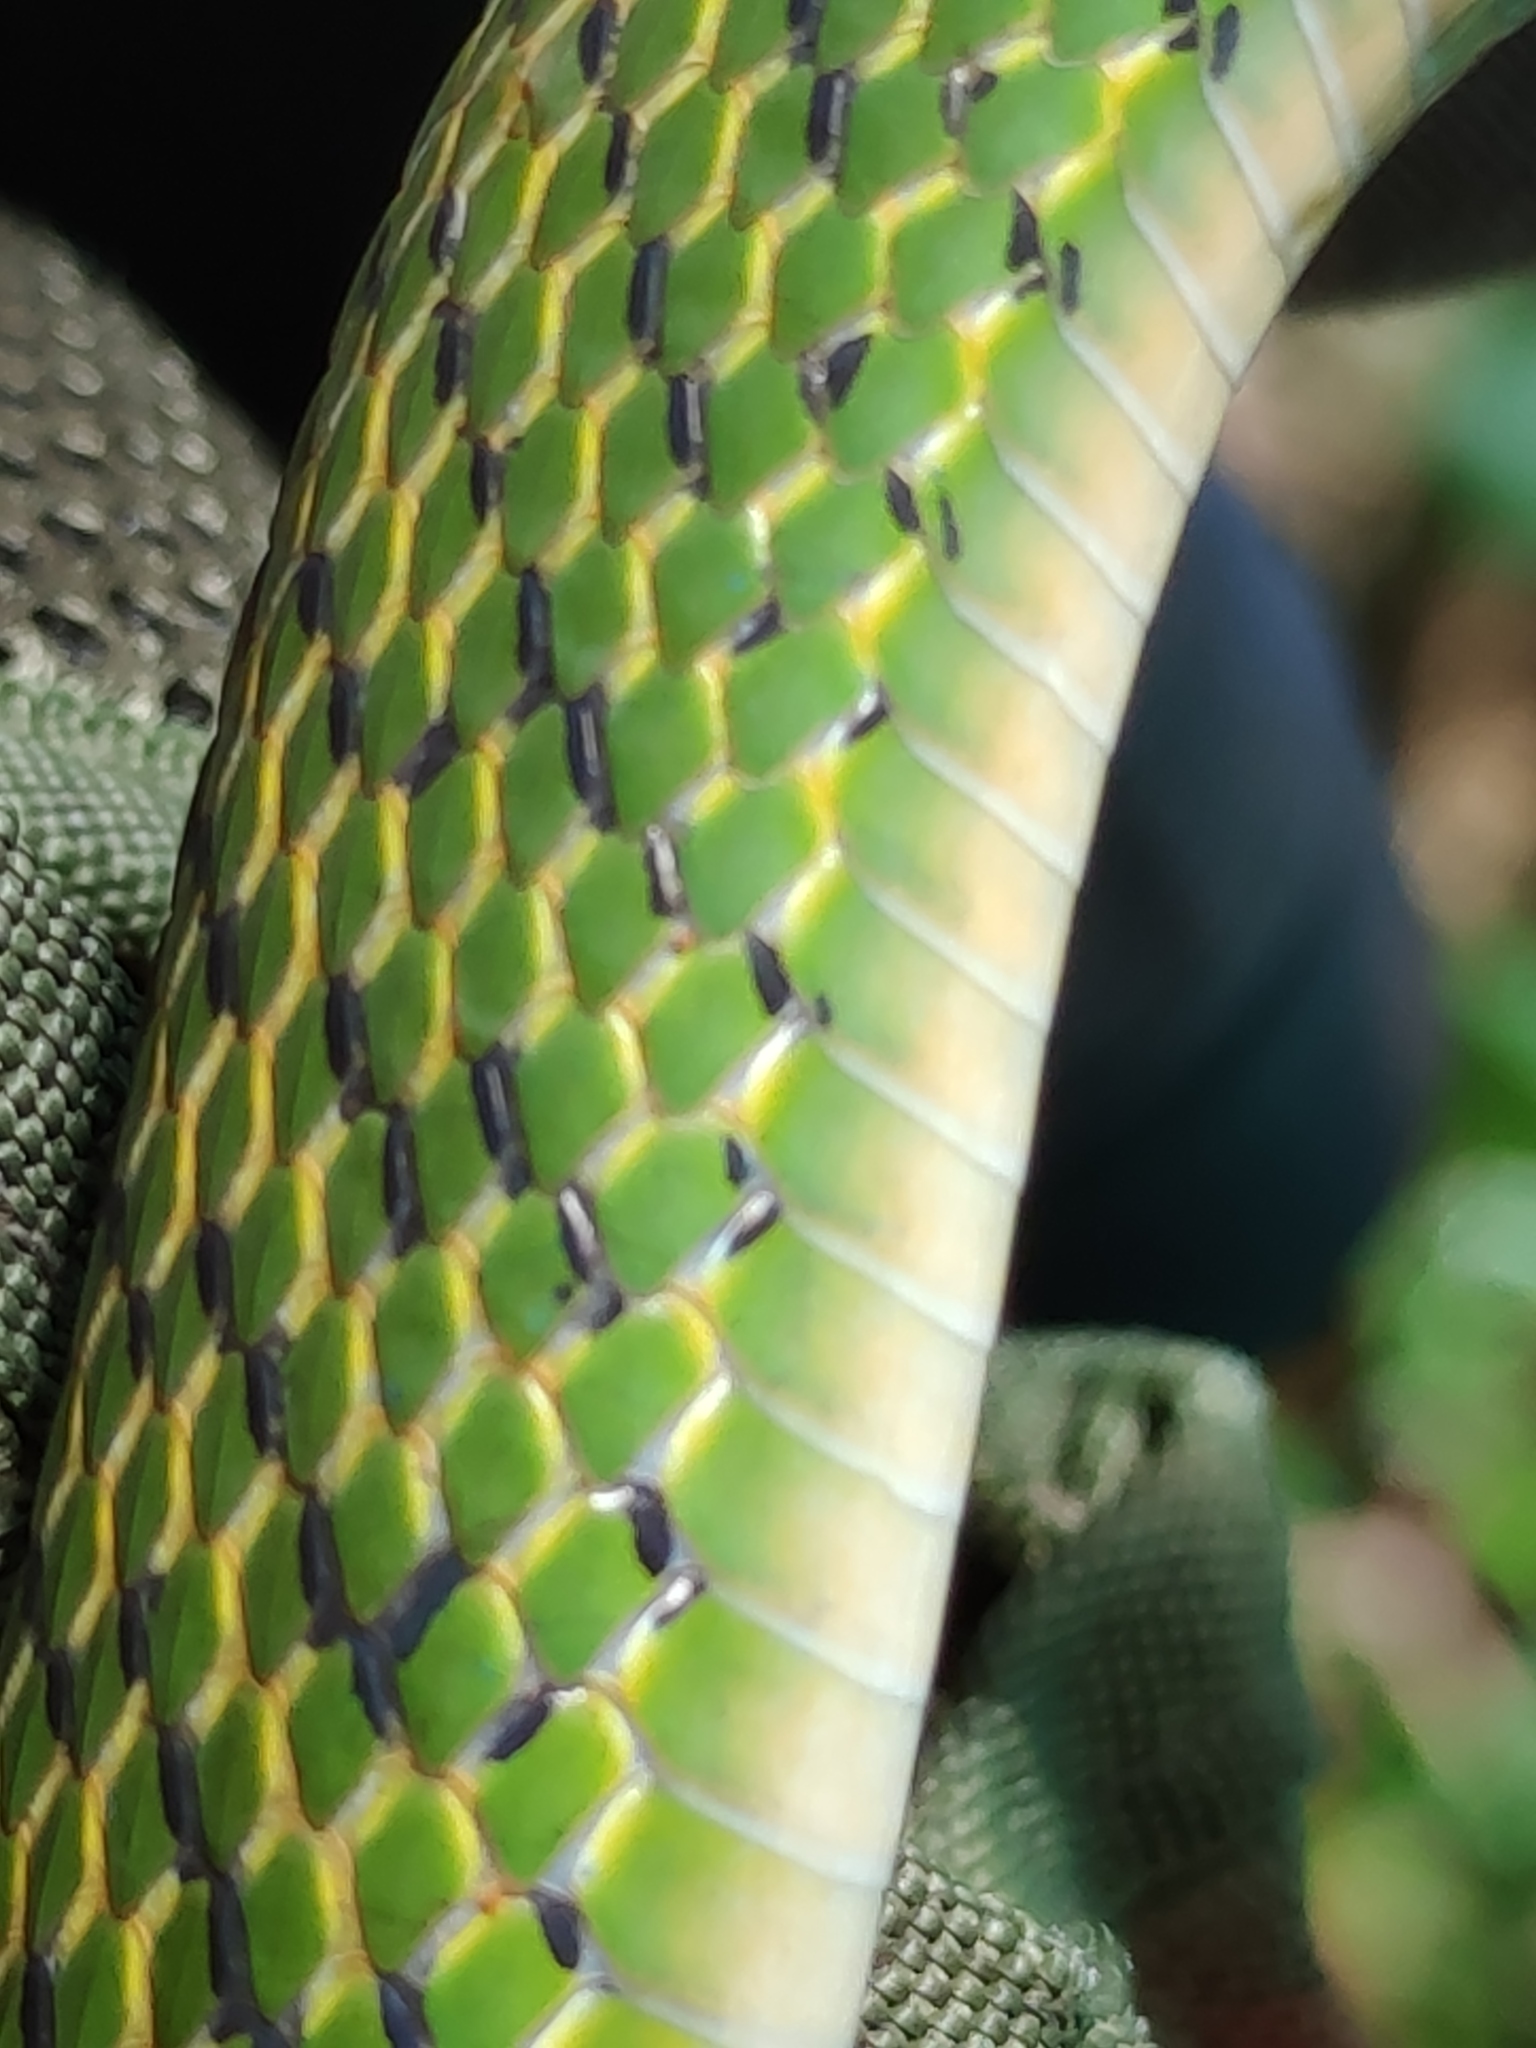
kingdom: Animalia
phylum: Chordata
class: Squamata
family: Colubridae
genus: Drymobius
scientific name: Drymobius chloroticus
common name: Green highland racer
